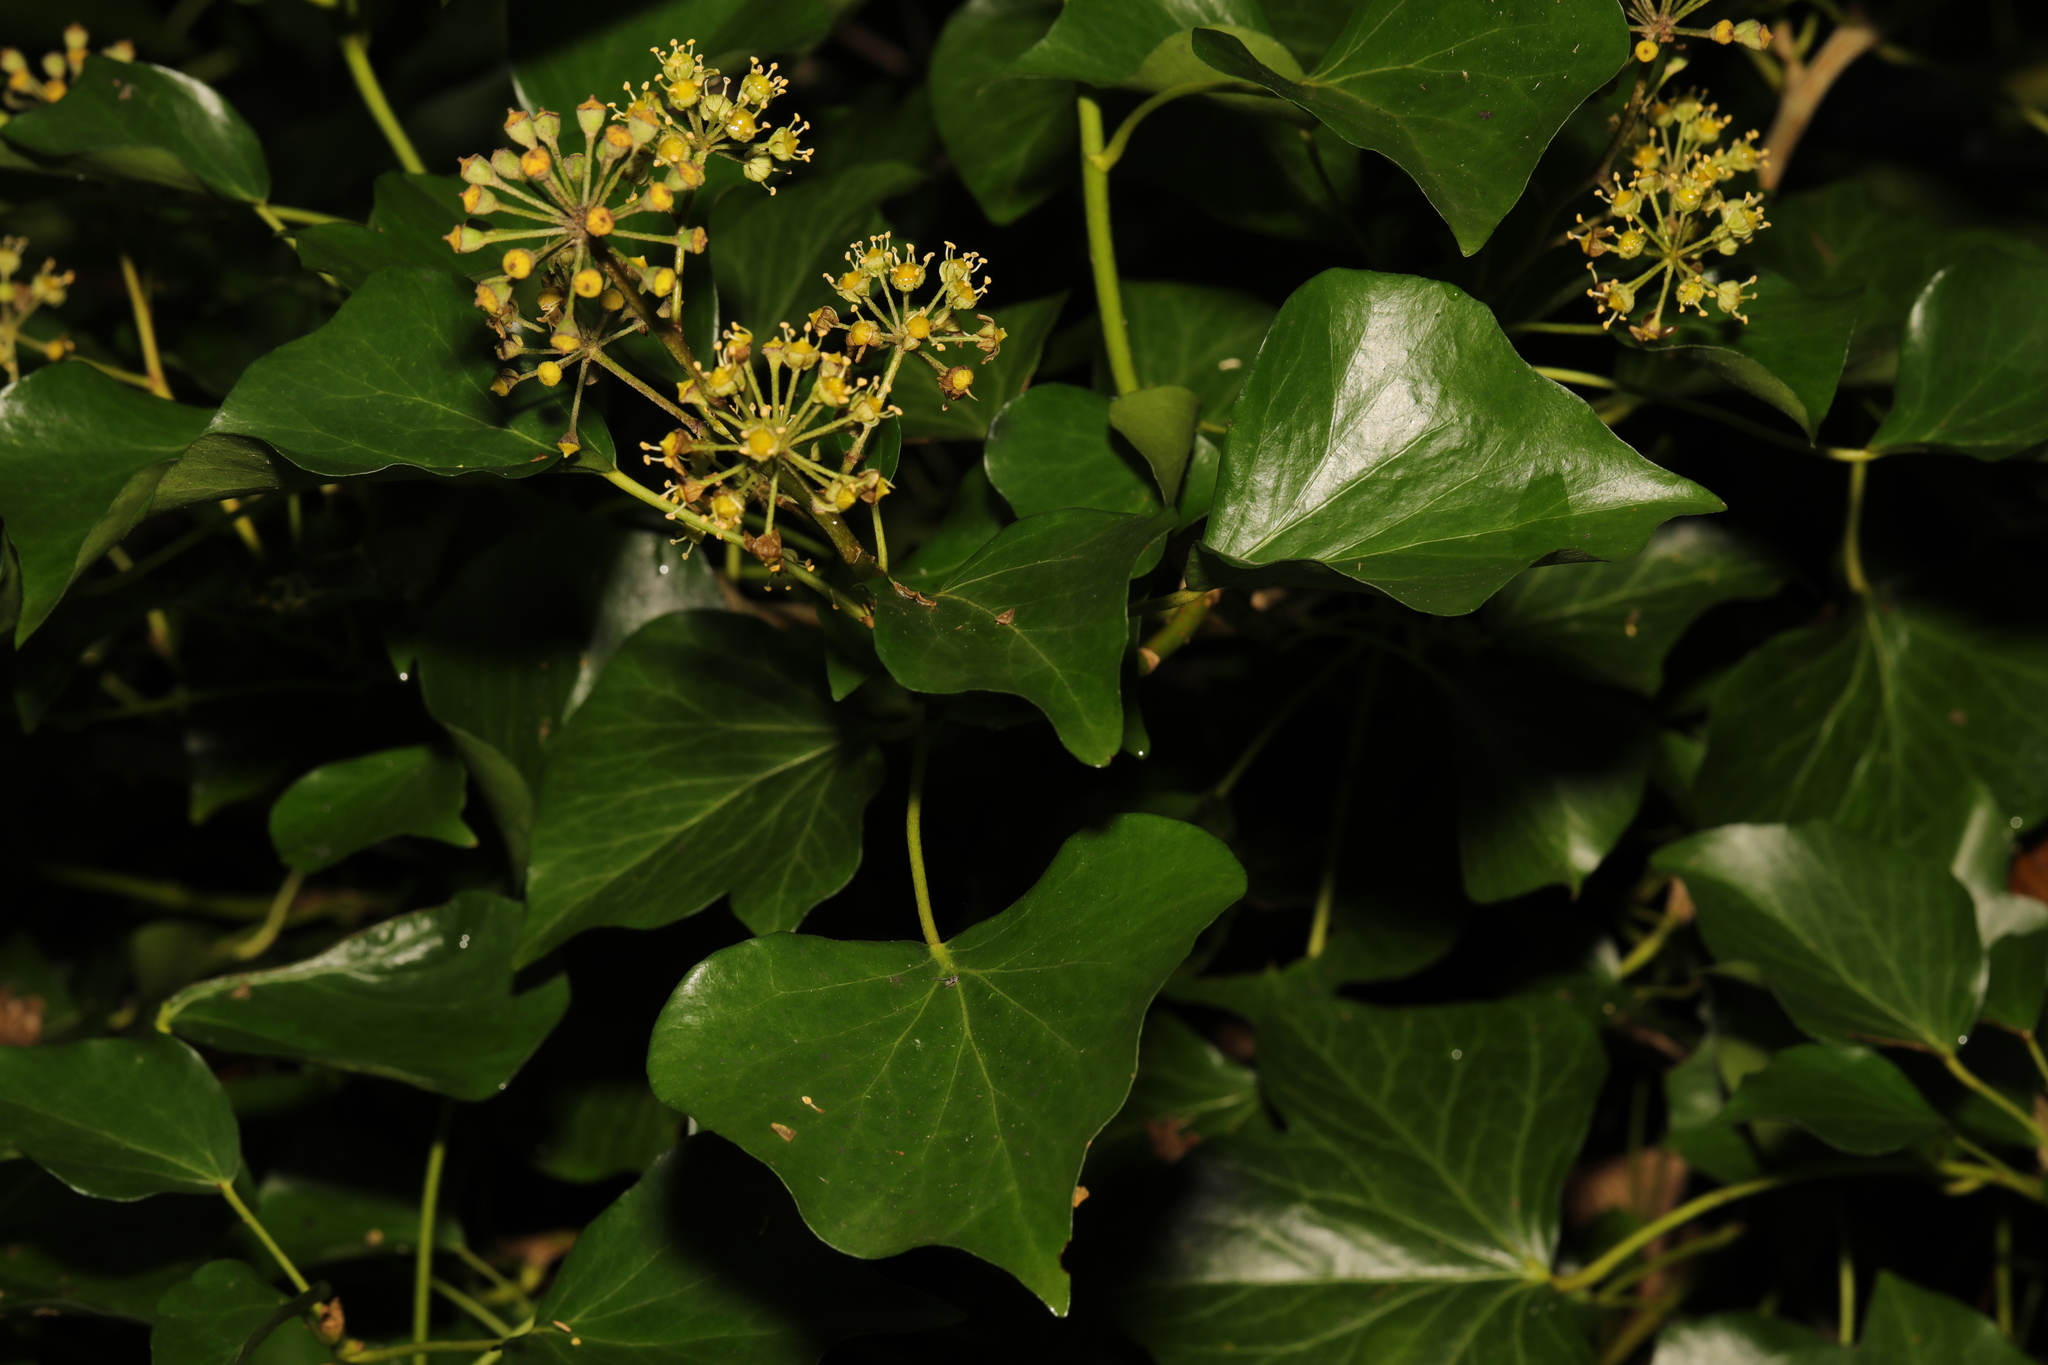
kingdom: Plantae
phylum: Tracheophyta
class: Magnoliopsida
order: Apiales
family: Araliaceae
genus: Hedera
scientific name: Hedera helix
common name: Ivy
